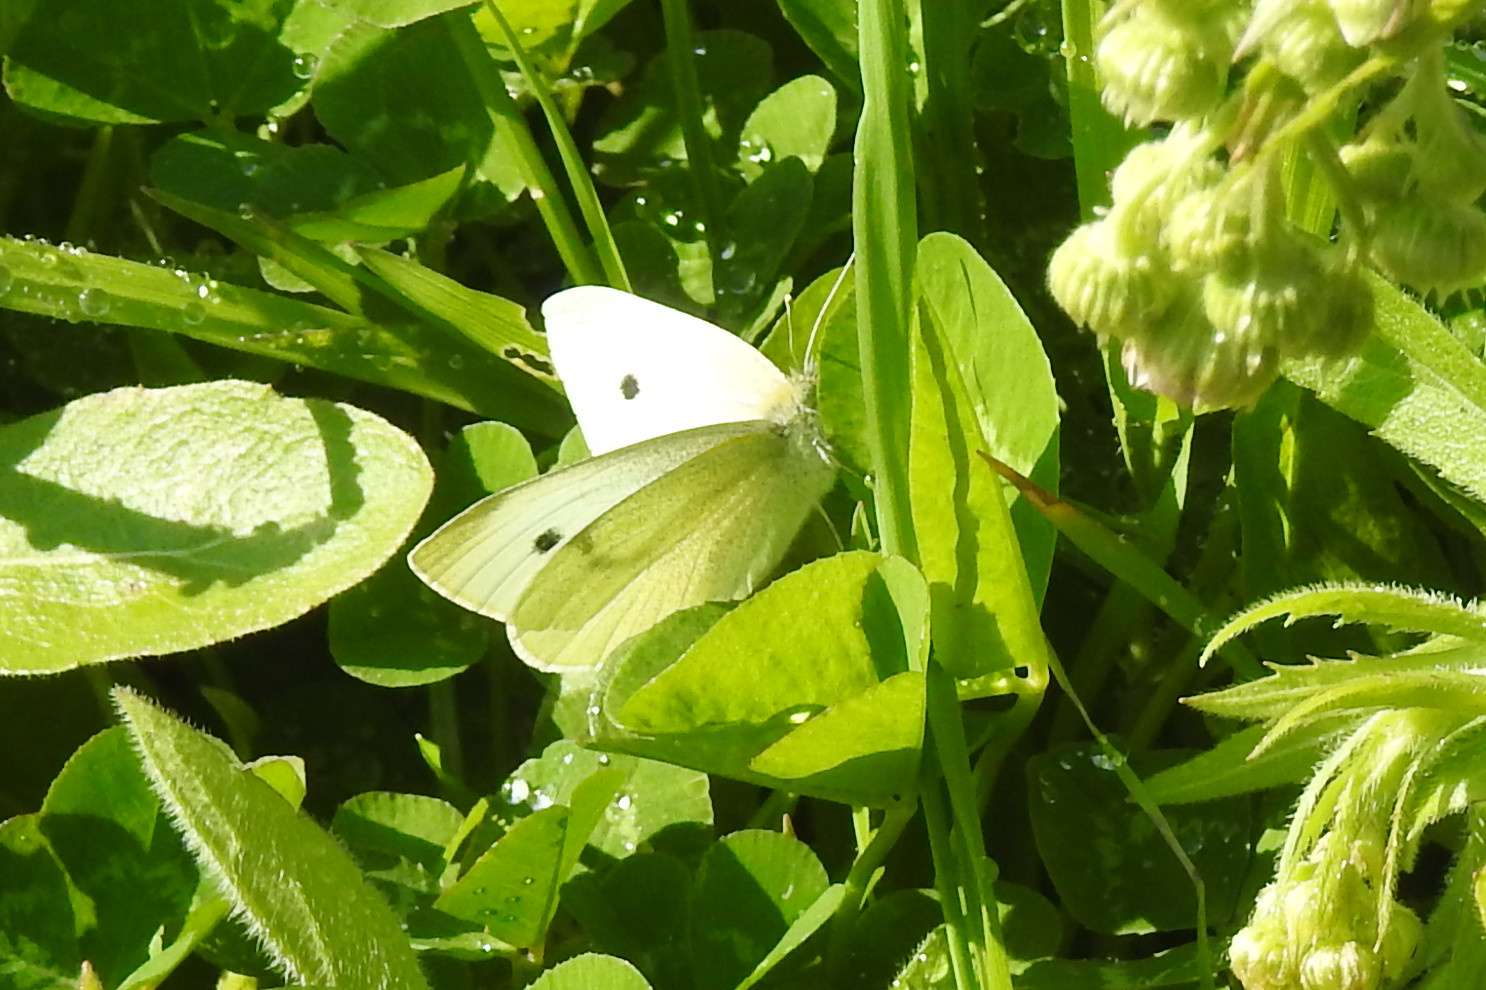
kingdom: Animalia
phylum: Arthropoda
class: Insecta
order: Lepidoptera
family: Pieridae
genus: Pieris
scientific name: Pieris rapae
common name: Small white
